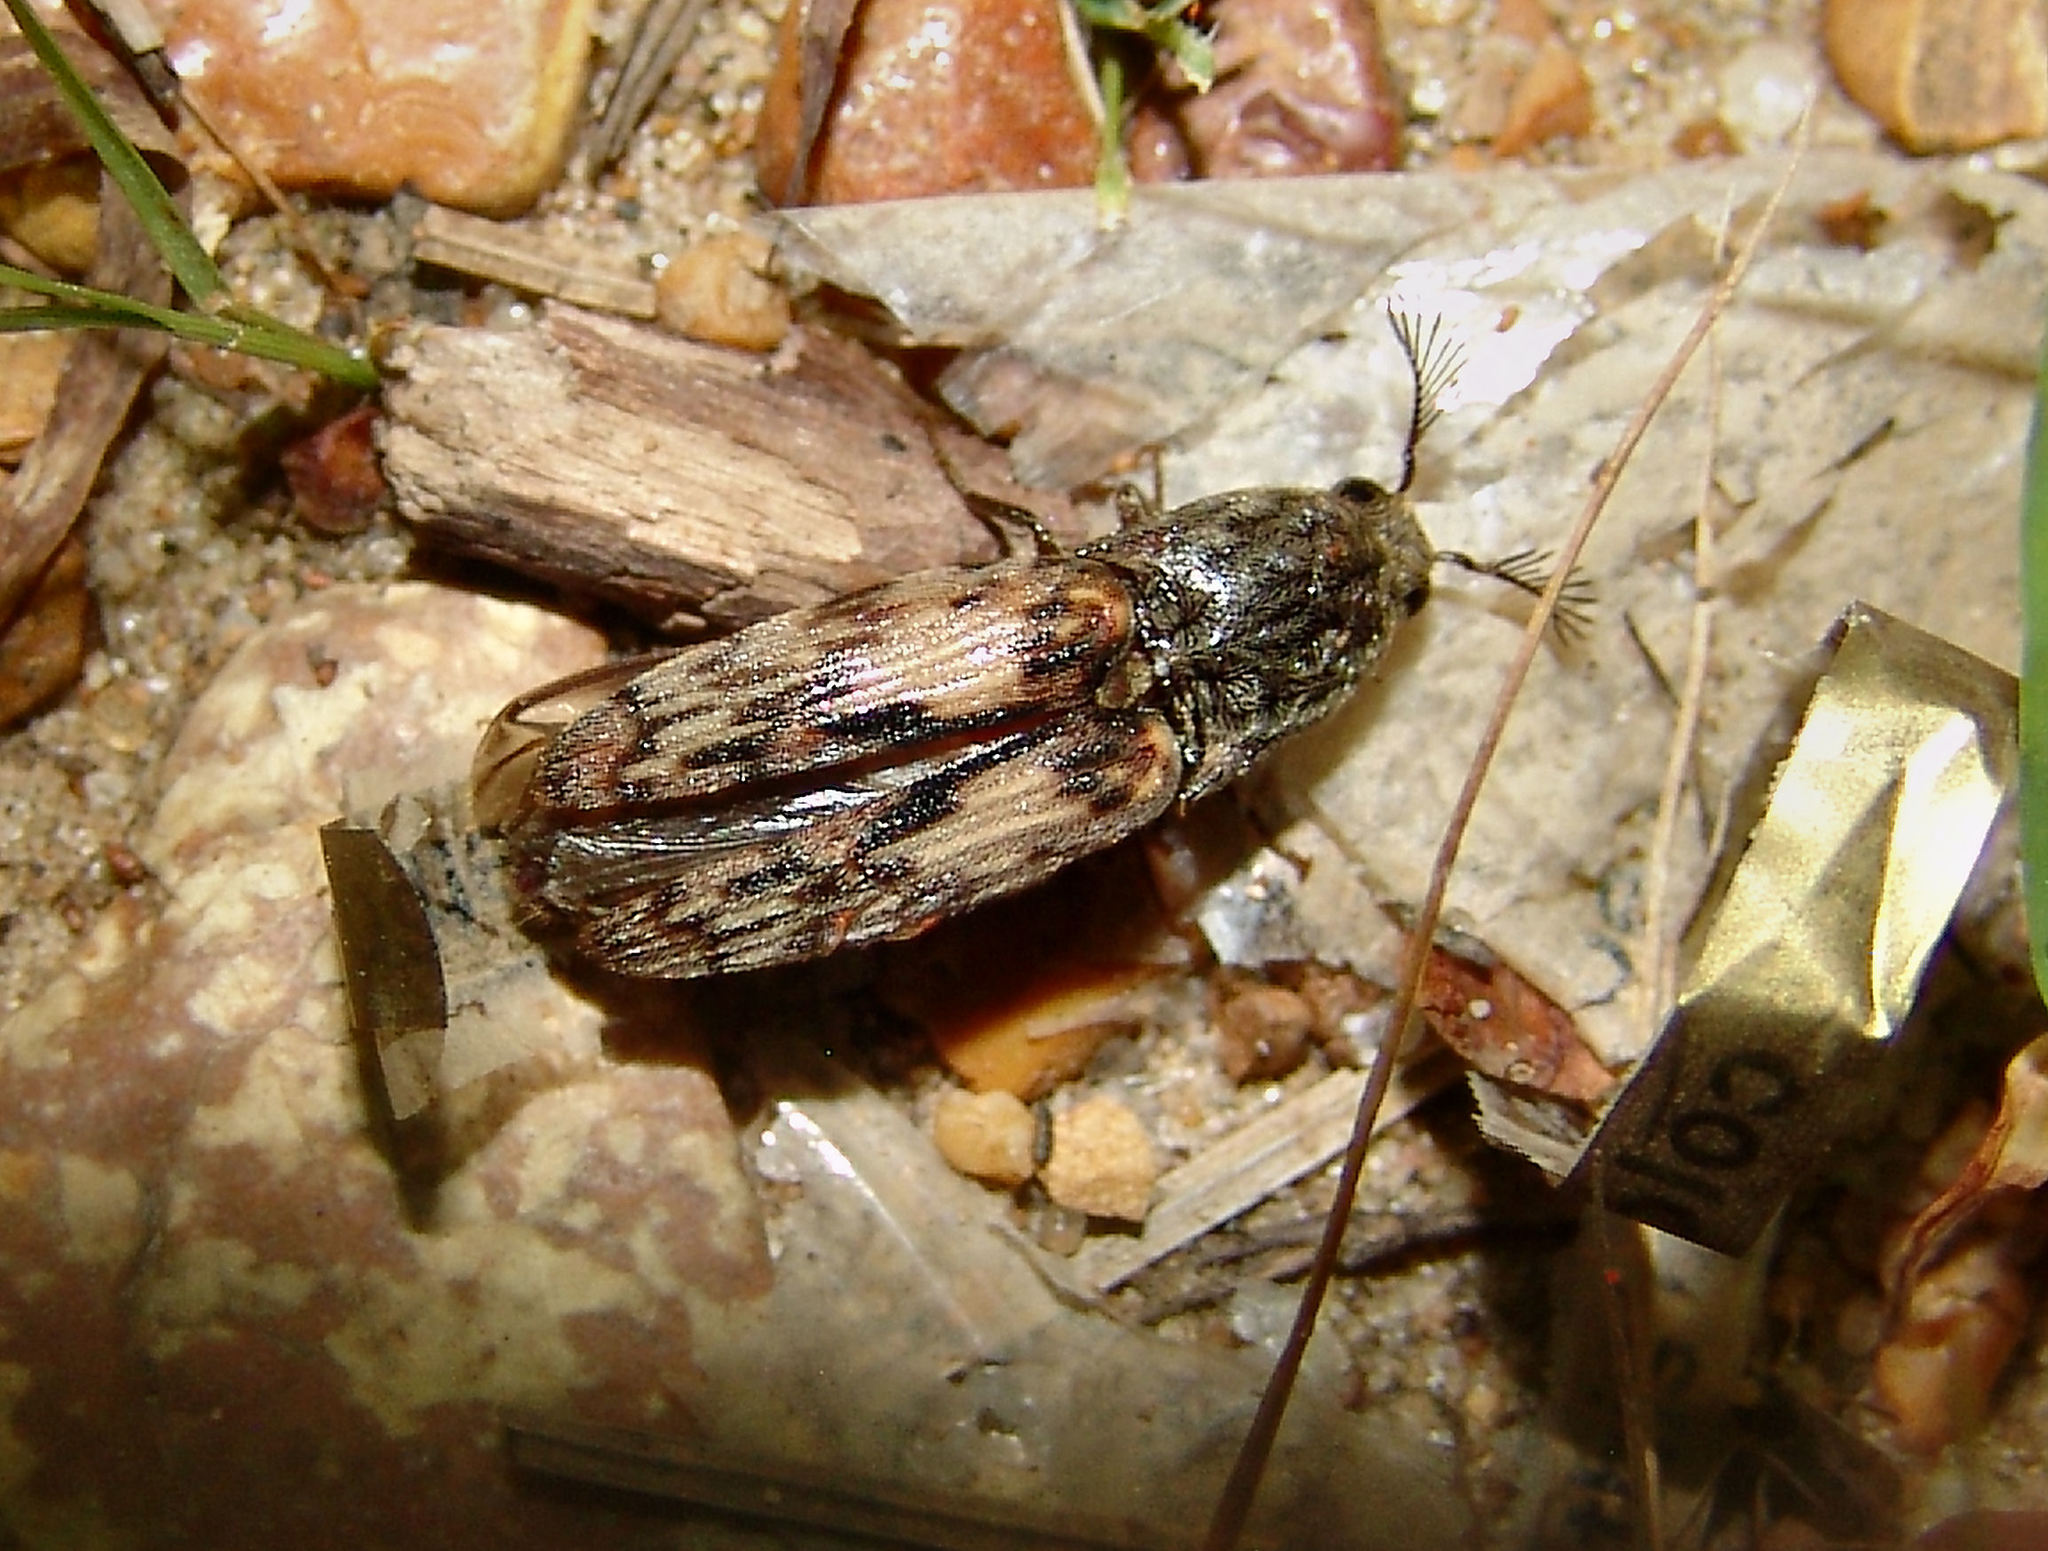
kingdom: Animalia
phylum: Arthropoda
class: Insecta
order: Coleoptera
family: Elateridae
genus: Pherhimius
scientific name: Pherhimius fascicularis
